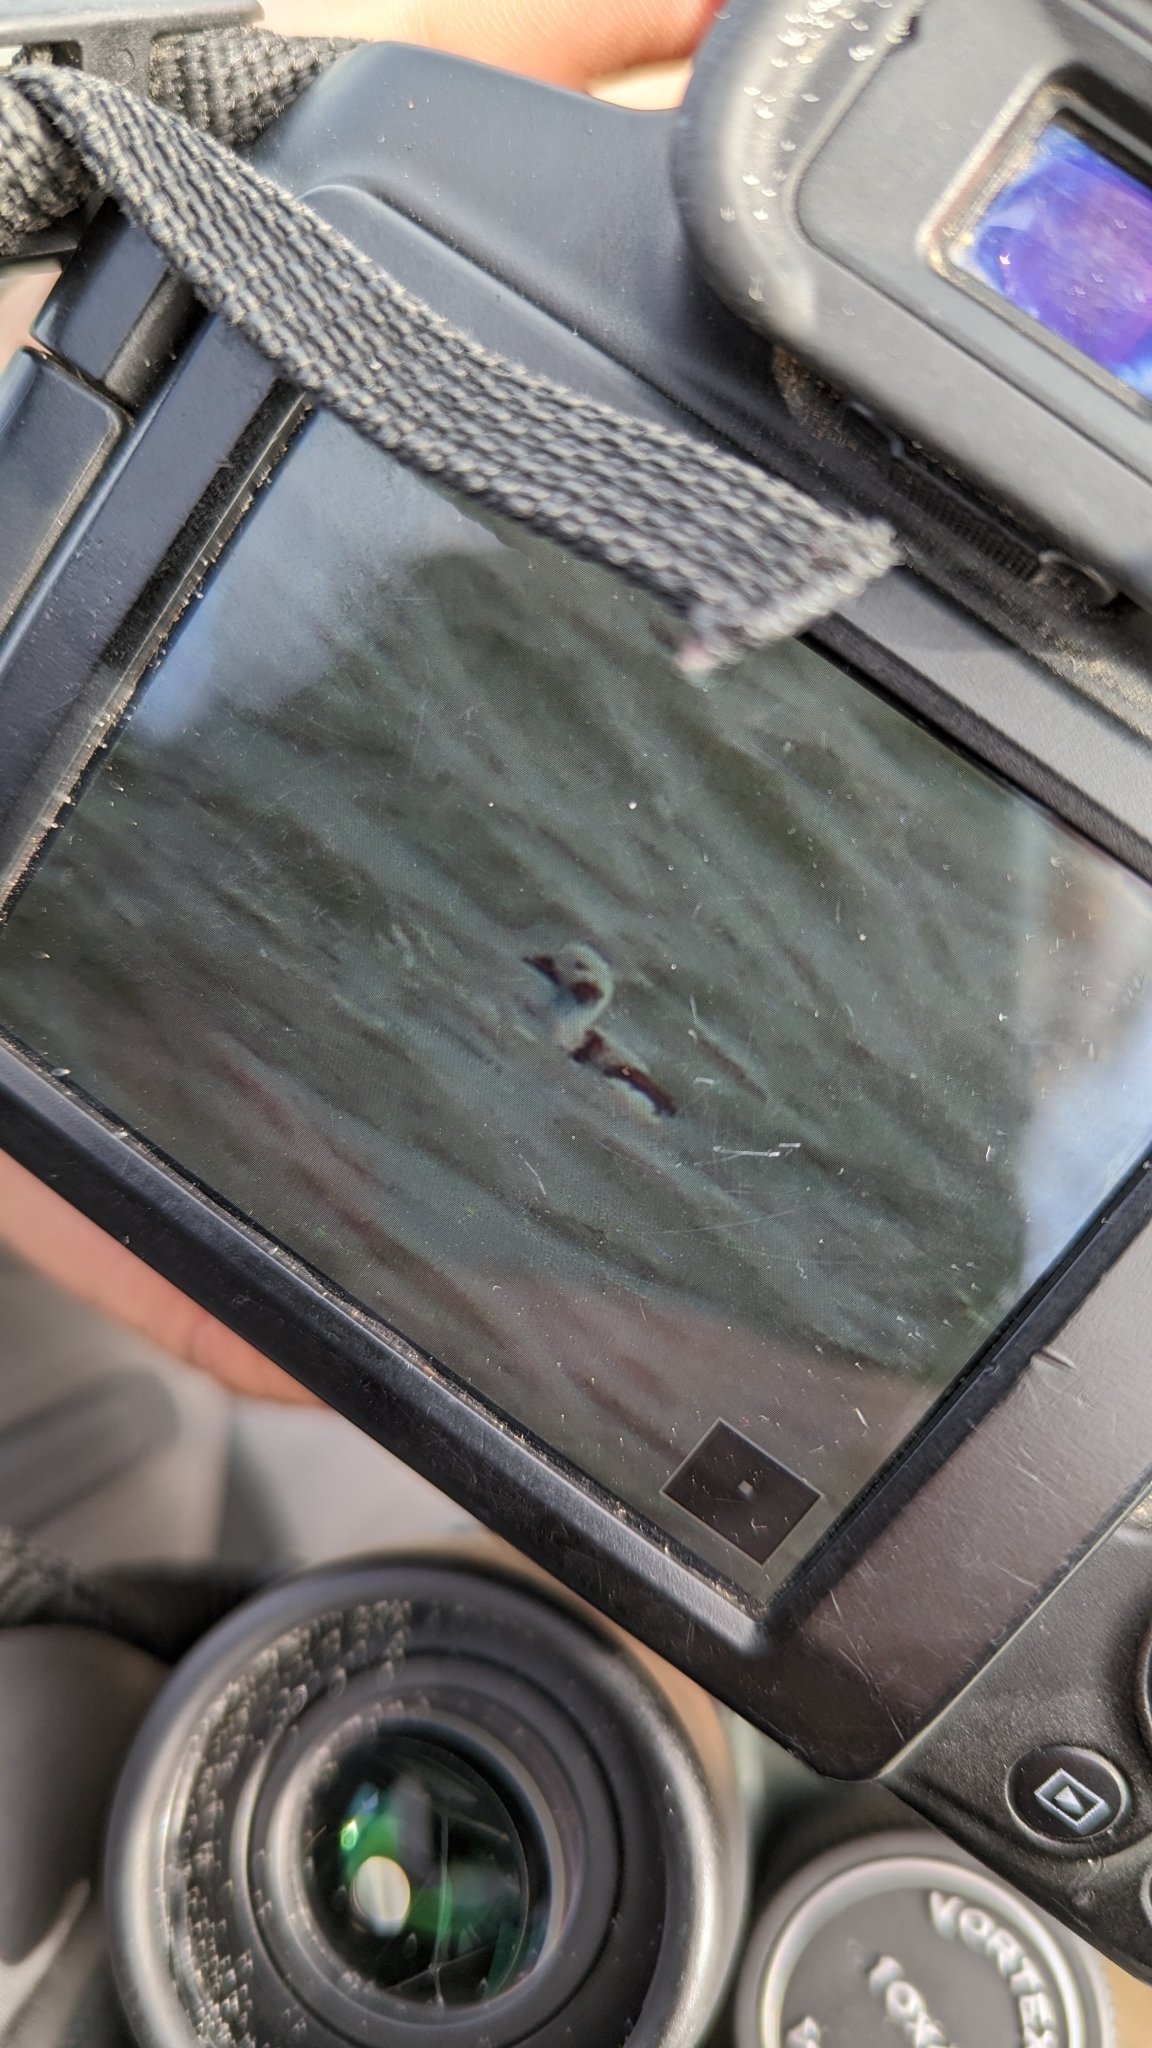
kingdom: Animalia
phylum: Chordata
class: Aves
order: Anseriformes
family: Anatidae
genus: Clangula
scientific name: Clangula hyemalis
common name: Long-tailed duck
